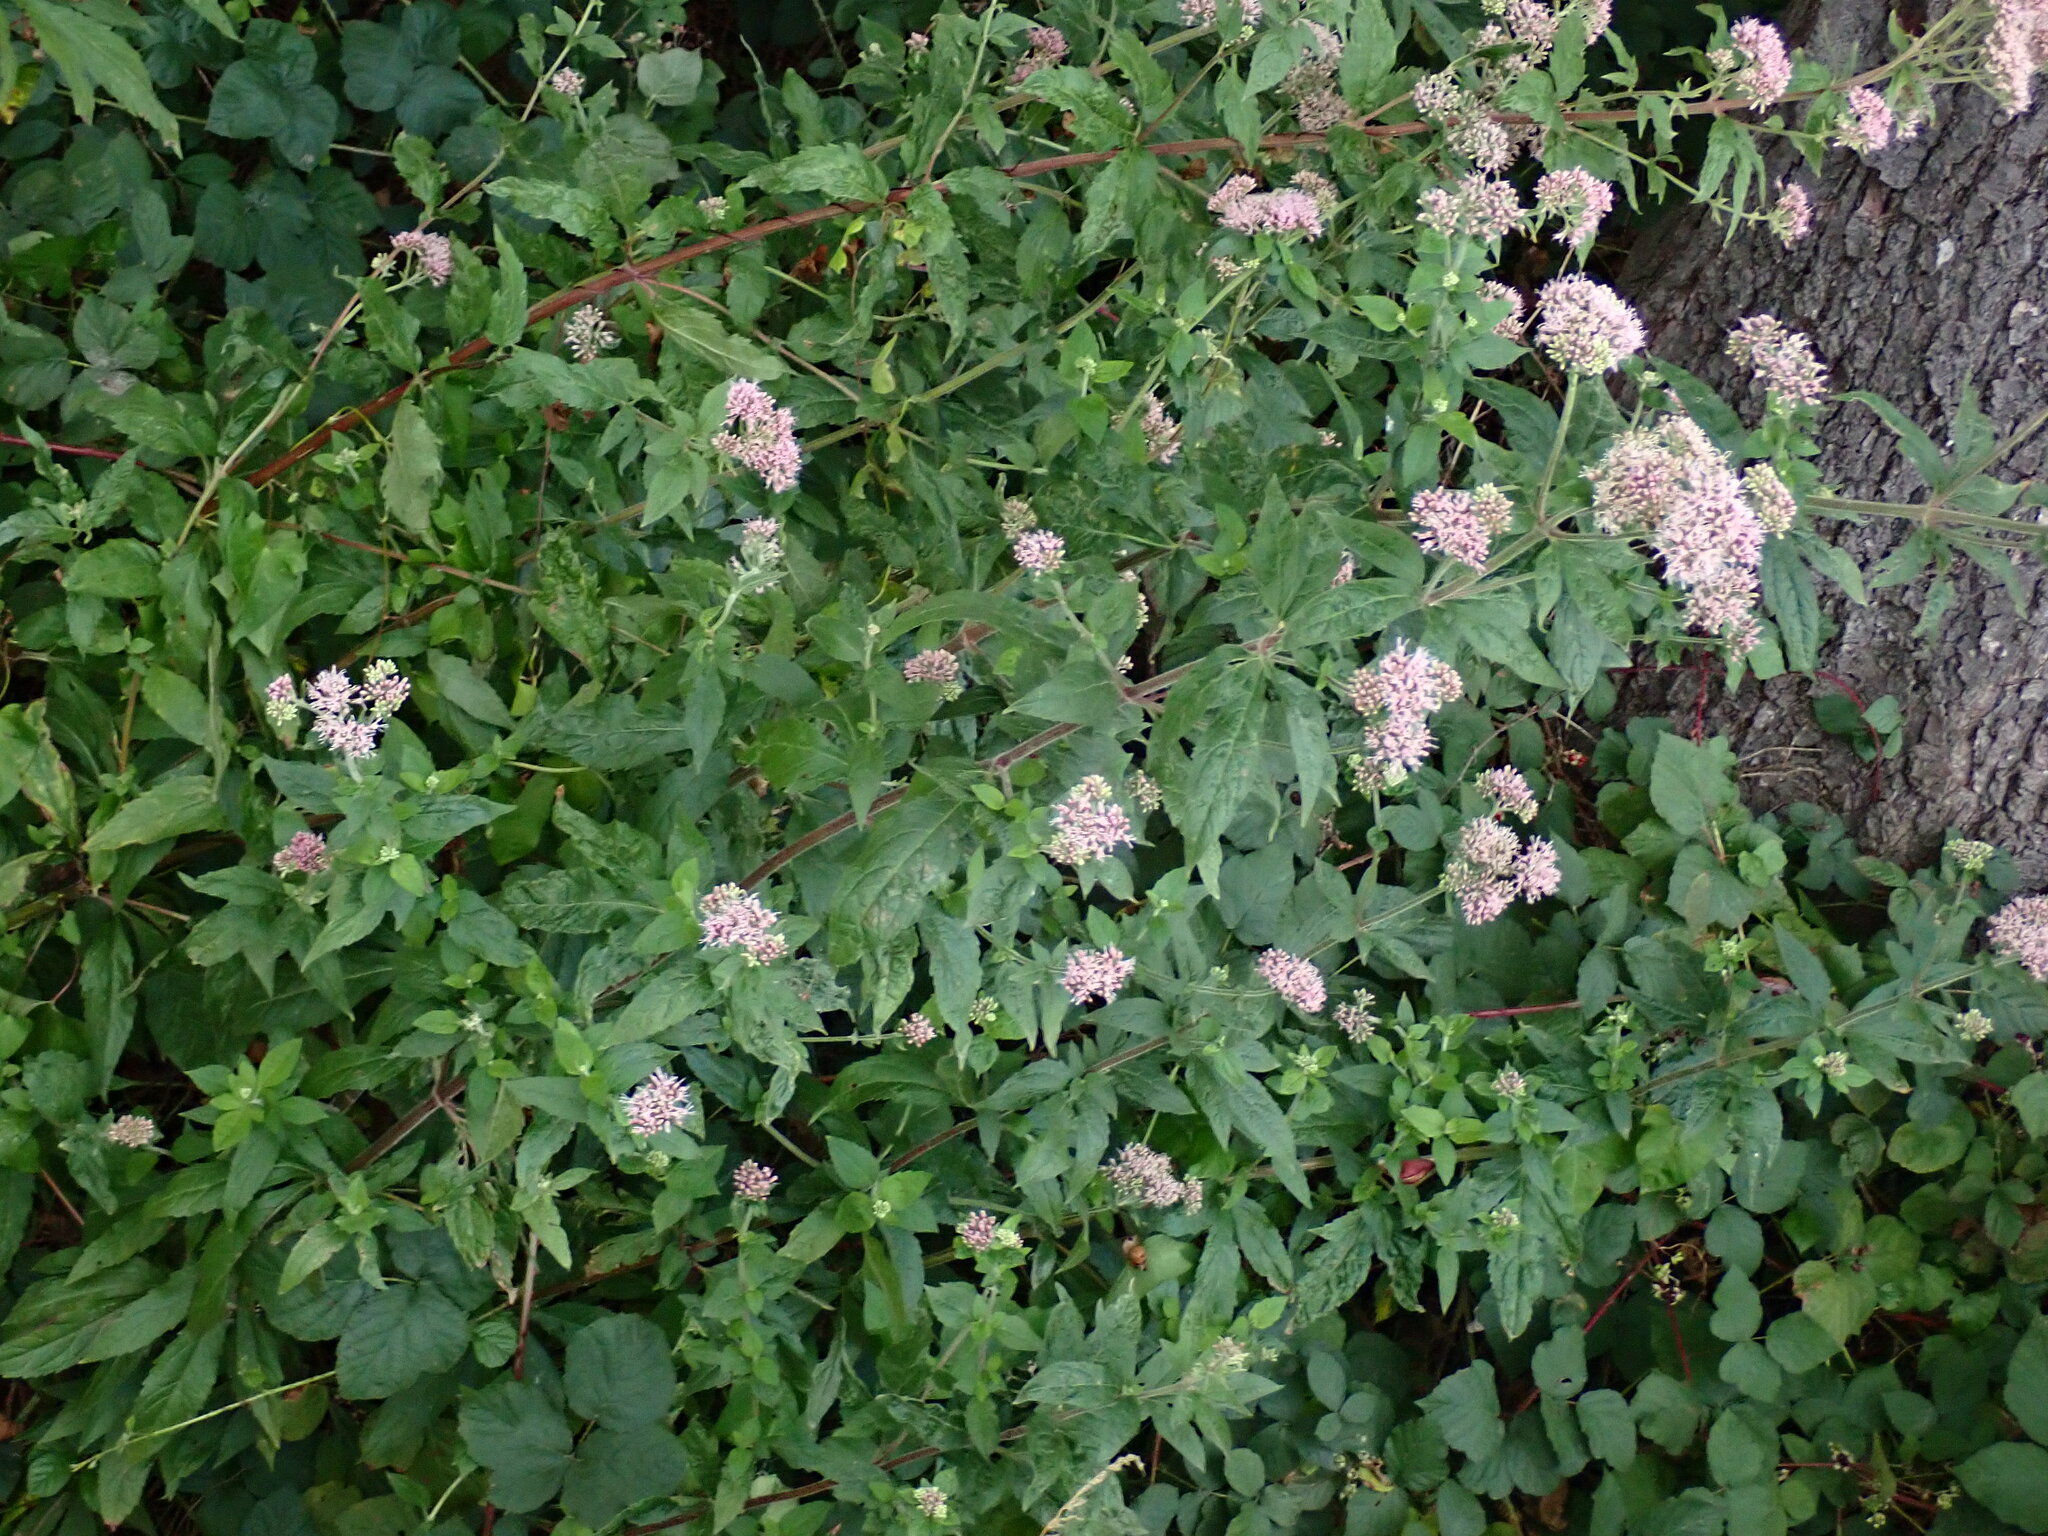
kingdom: Plantae
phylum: Tracheophyta
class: Magnoliopsida
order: Asterales
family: Asteraceae
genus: Eupatorium
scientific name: Eupatorium cannabinum
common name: Hemp-agrimony
